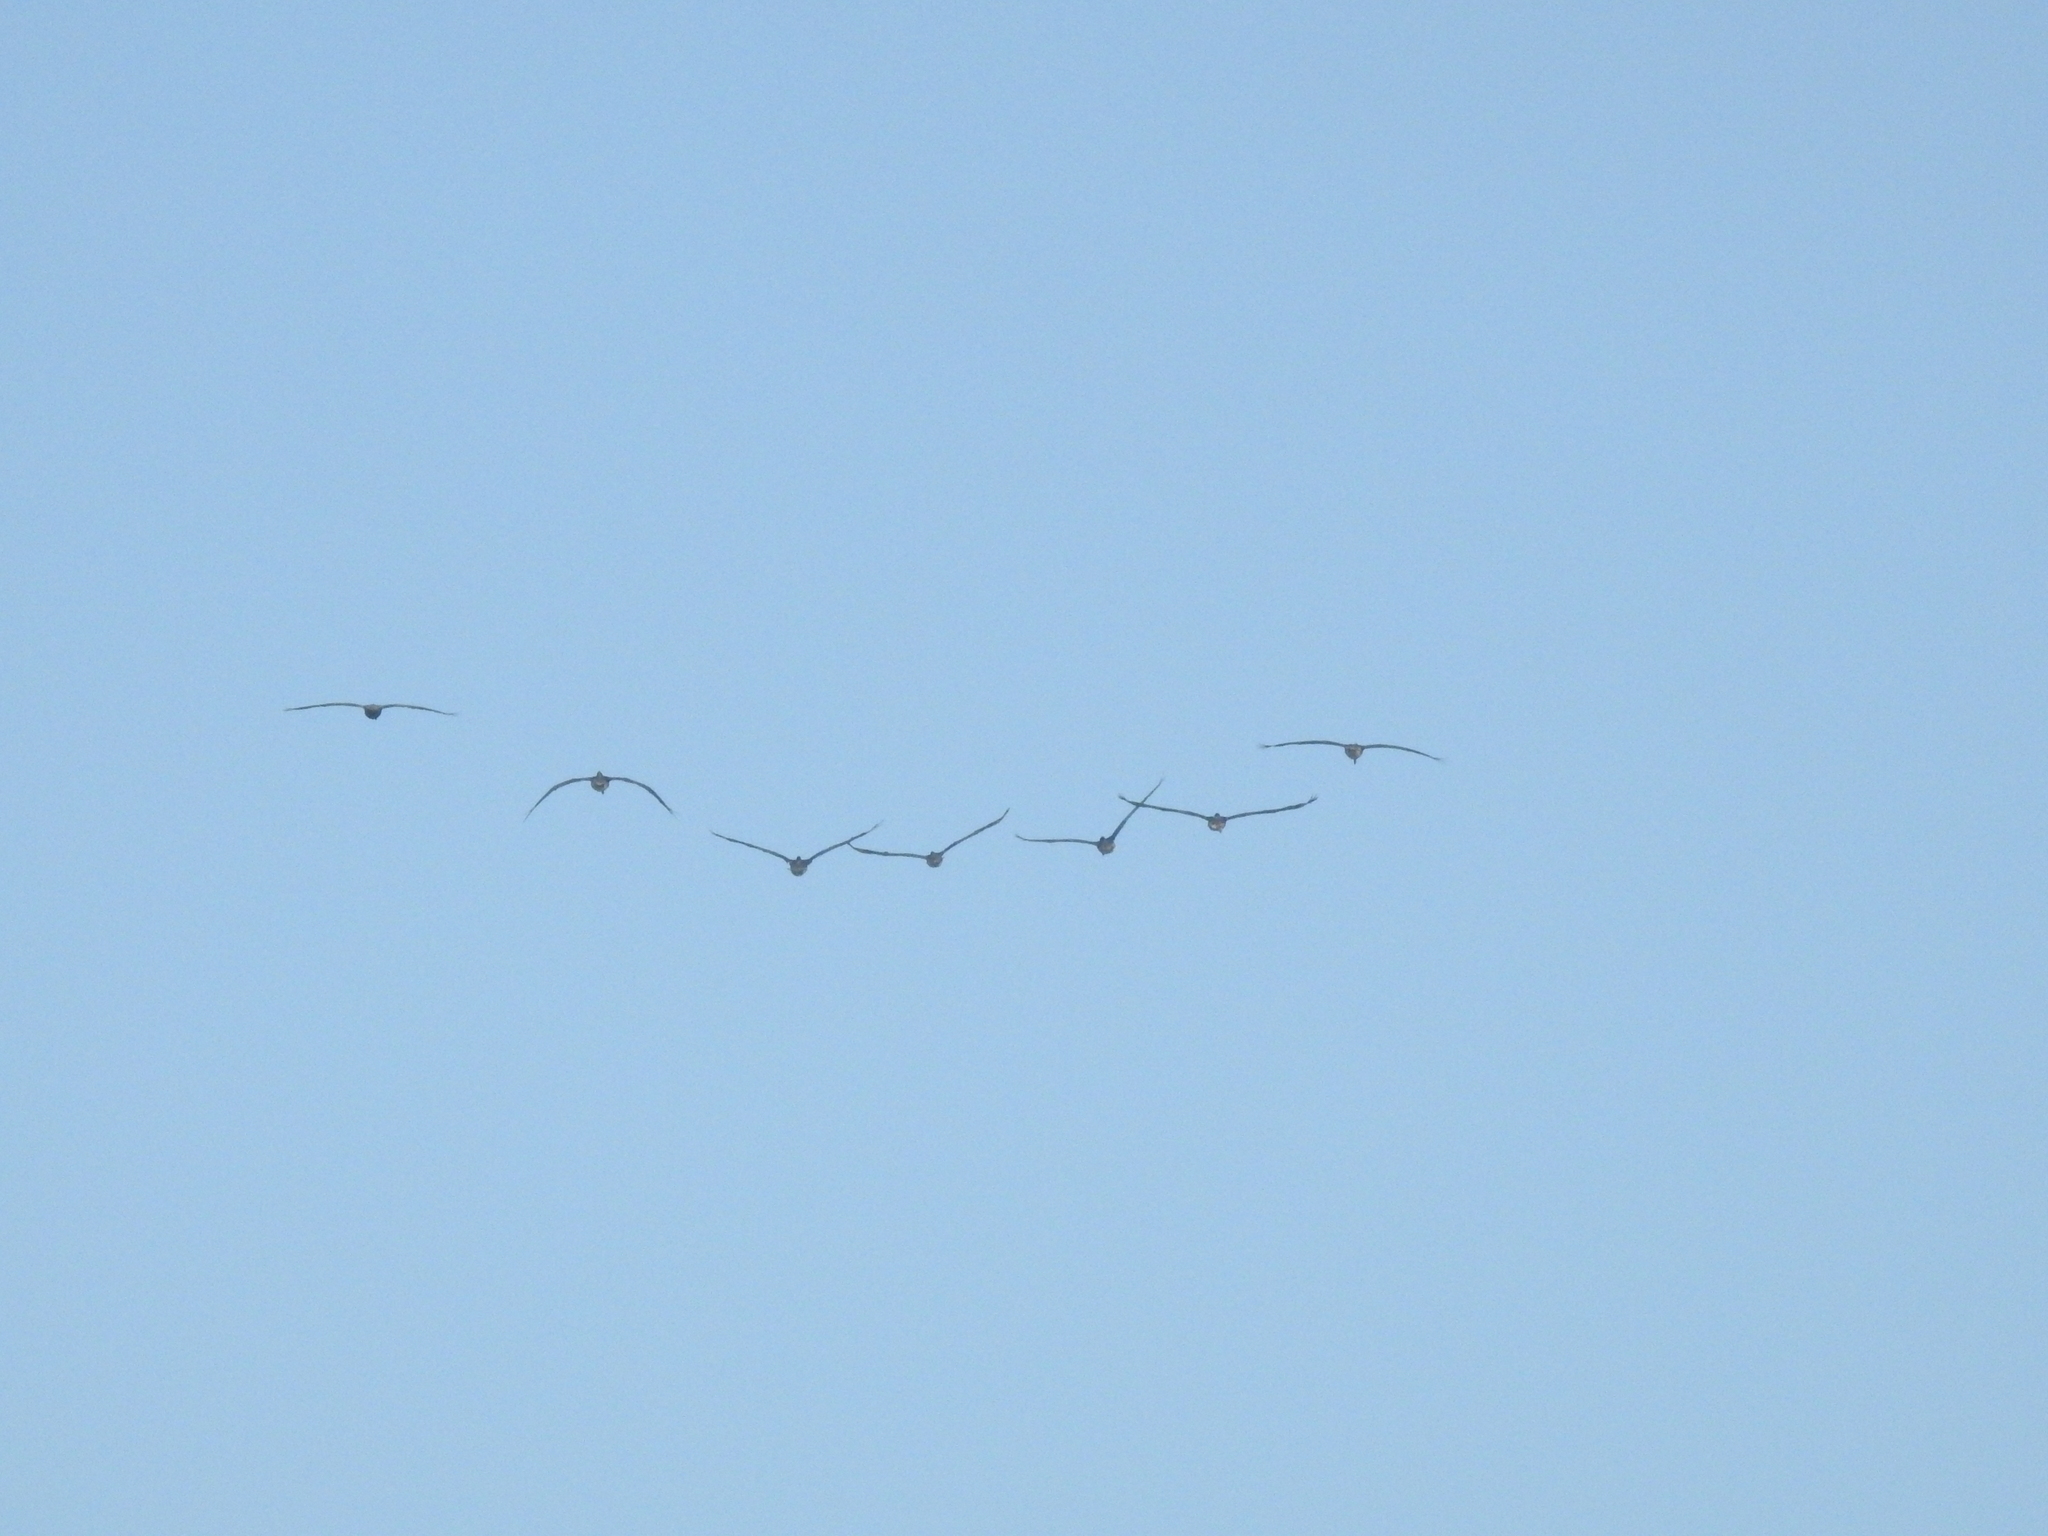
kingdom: Animalia
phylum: Chordata
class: Aves
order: Pelecaniformes
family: Pelecanidae
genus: Pelecanus
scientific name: Pelecanus occidentalis
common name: Brown pelican
